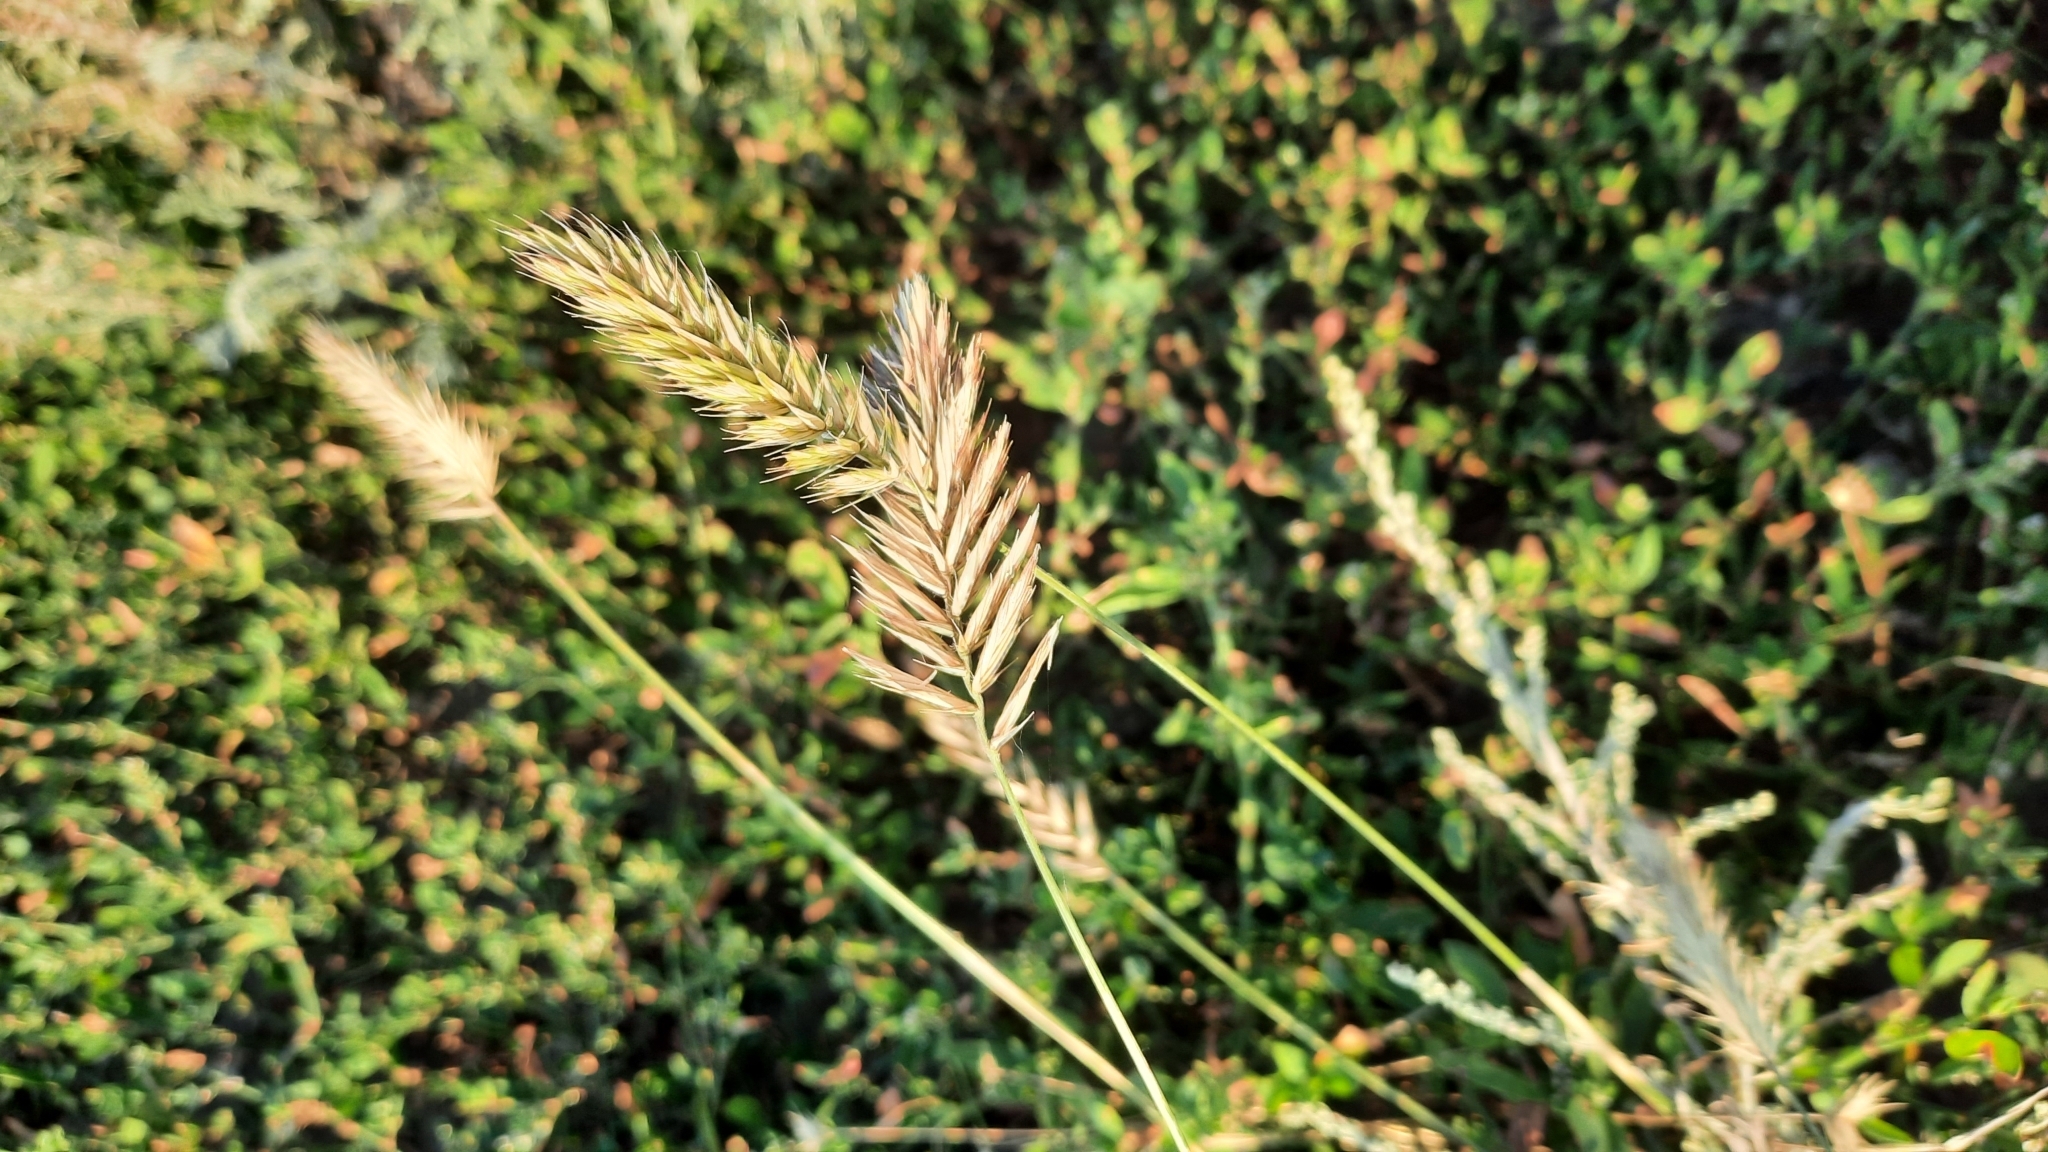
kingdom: Plantae
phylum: Tracheophyta
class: Liliopsida
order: Poales
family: Poaceae
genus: Agropyron
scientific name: Agropyron cristatum
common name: Crested wheatgrass
